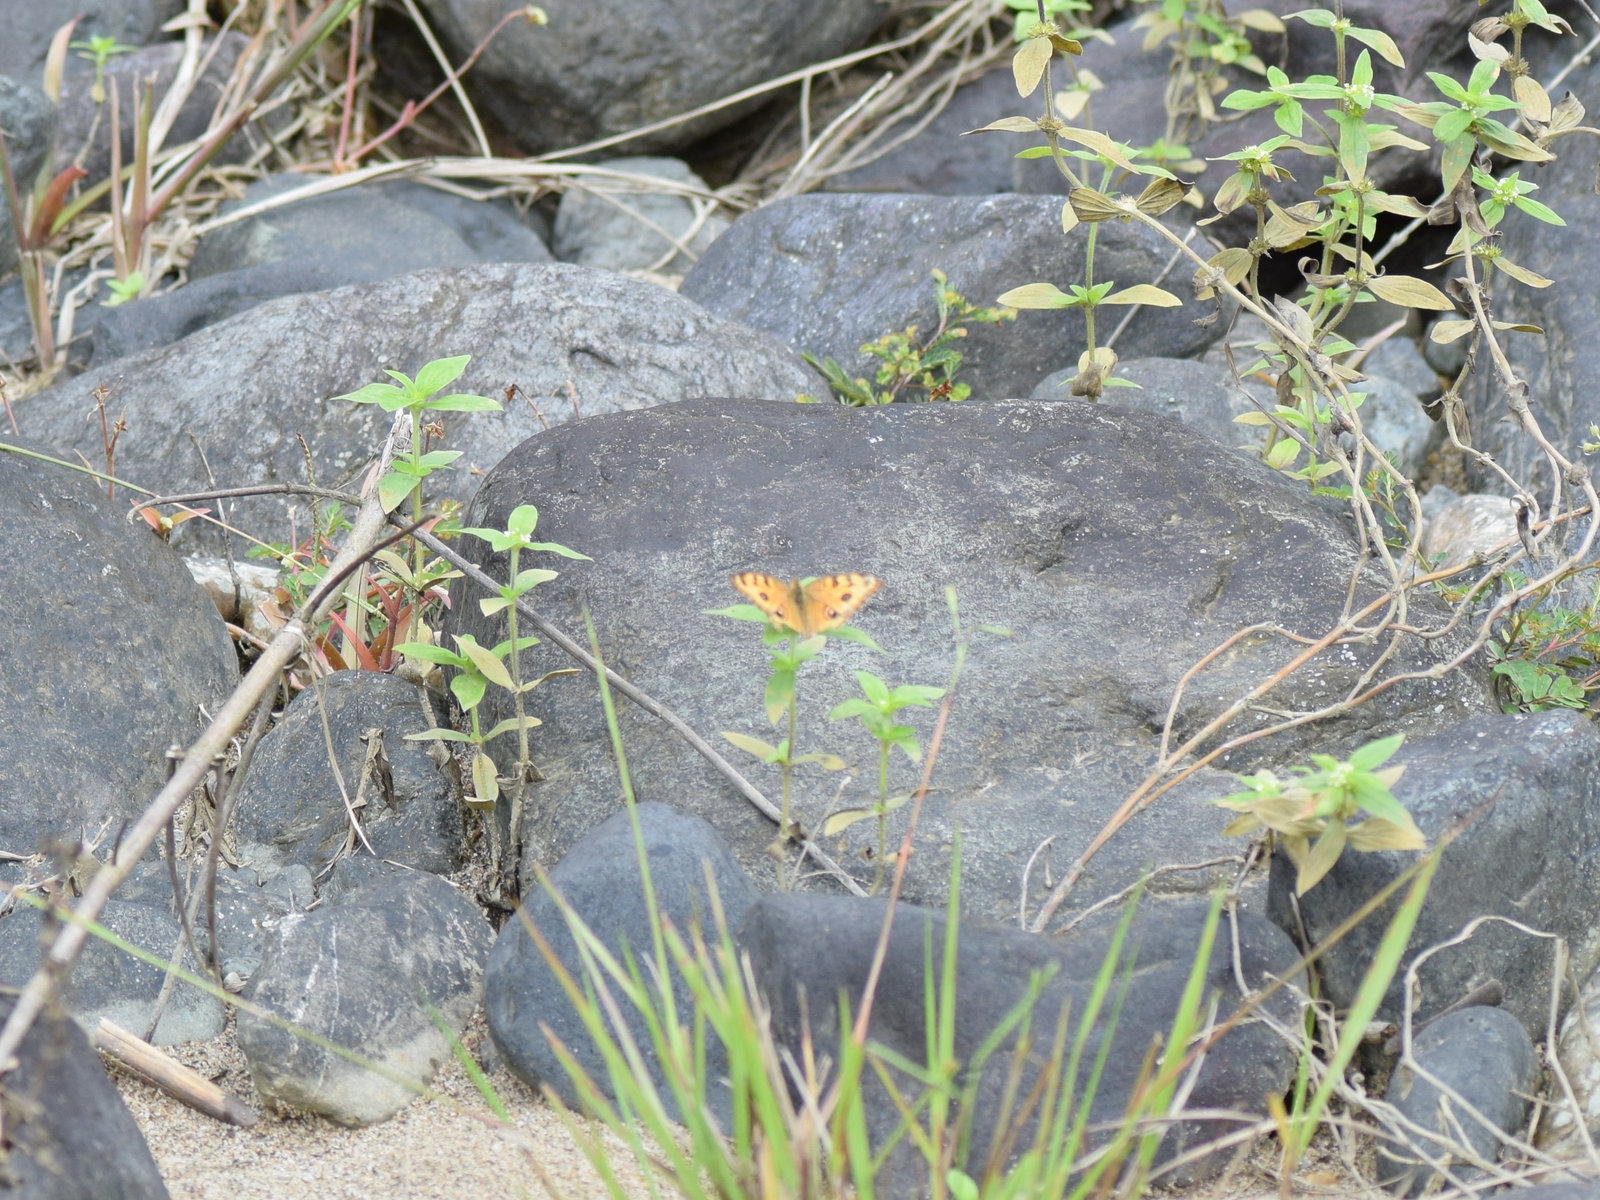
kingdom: Animalia
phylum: Arthropoda
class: Insecta
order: Lepidoptera
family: Nymphalidae
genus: Junonia
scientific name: Junonia almana
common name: Peacock pansy
